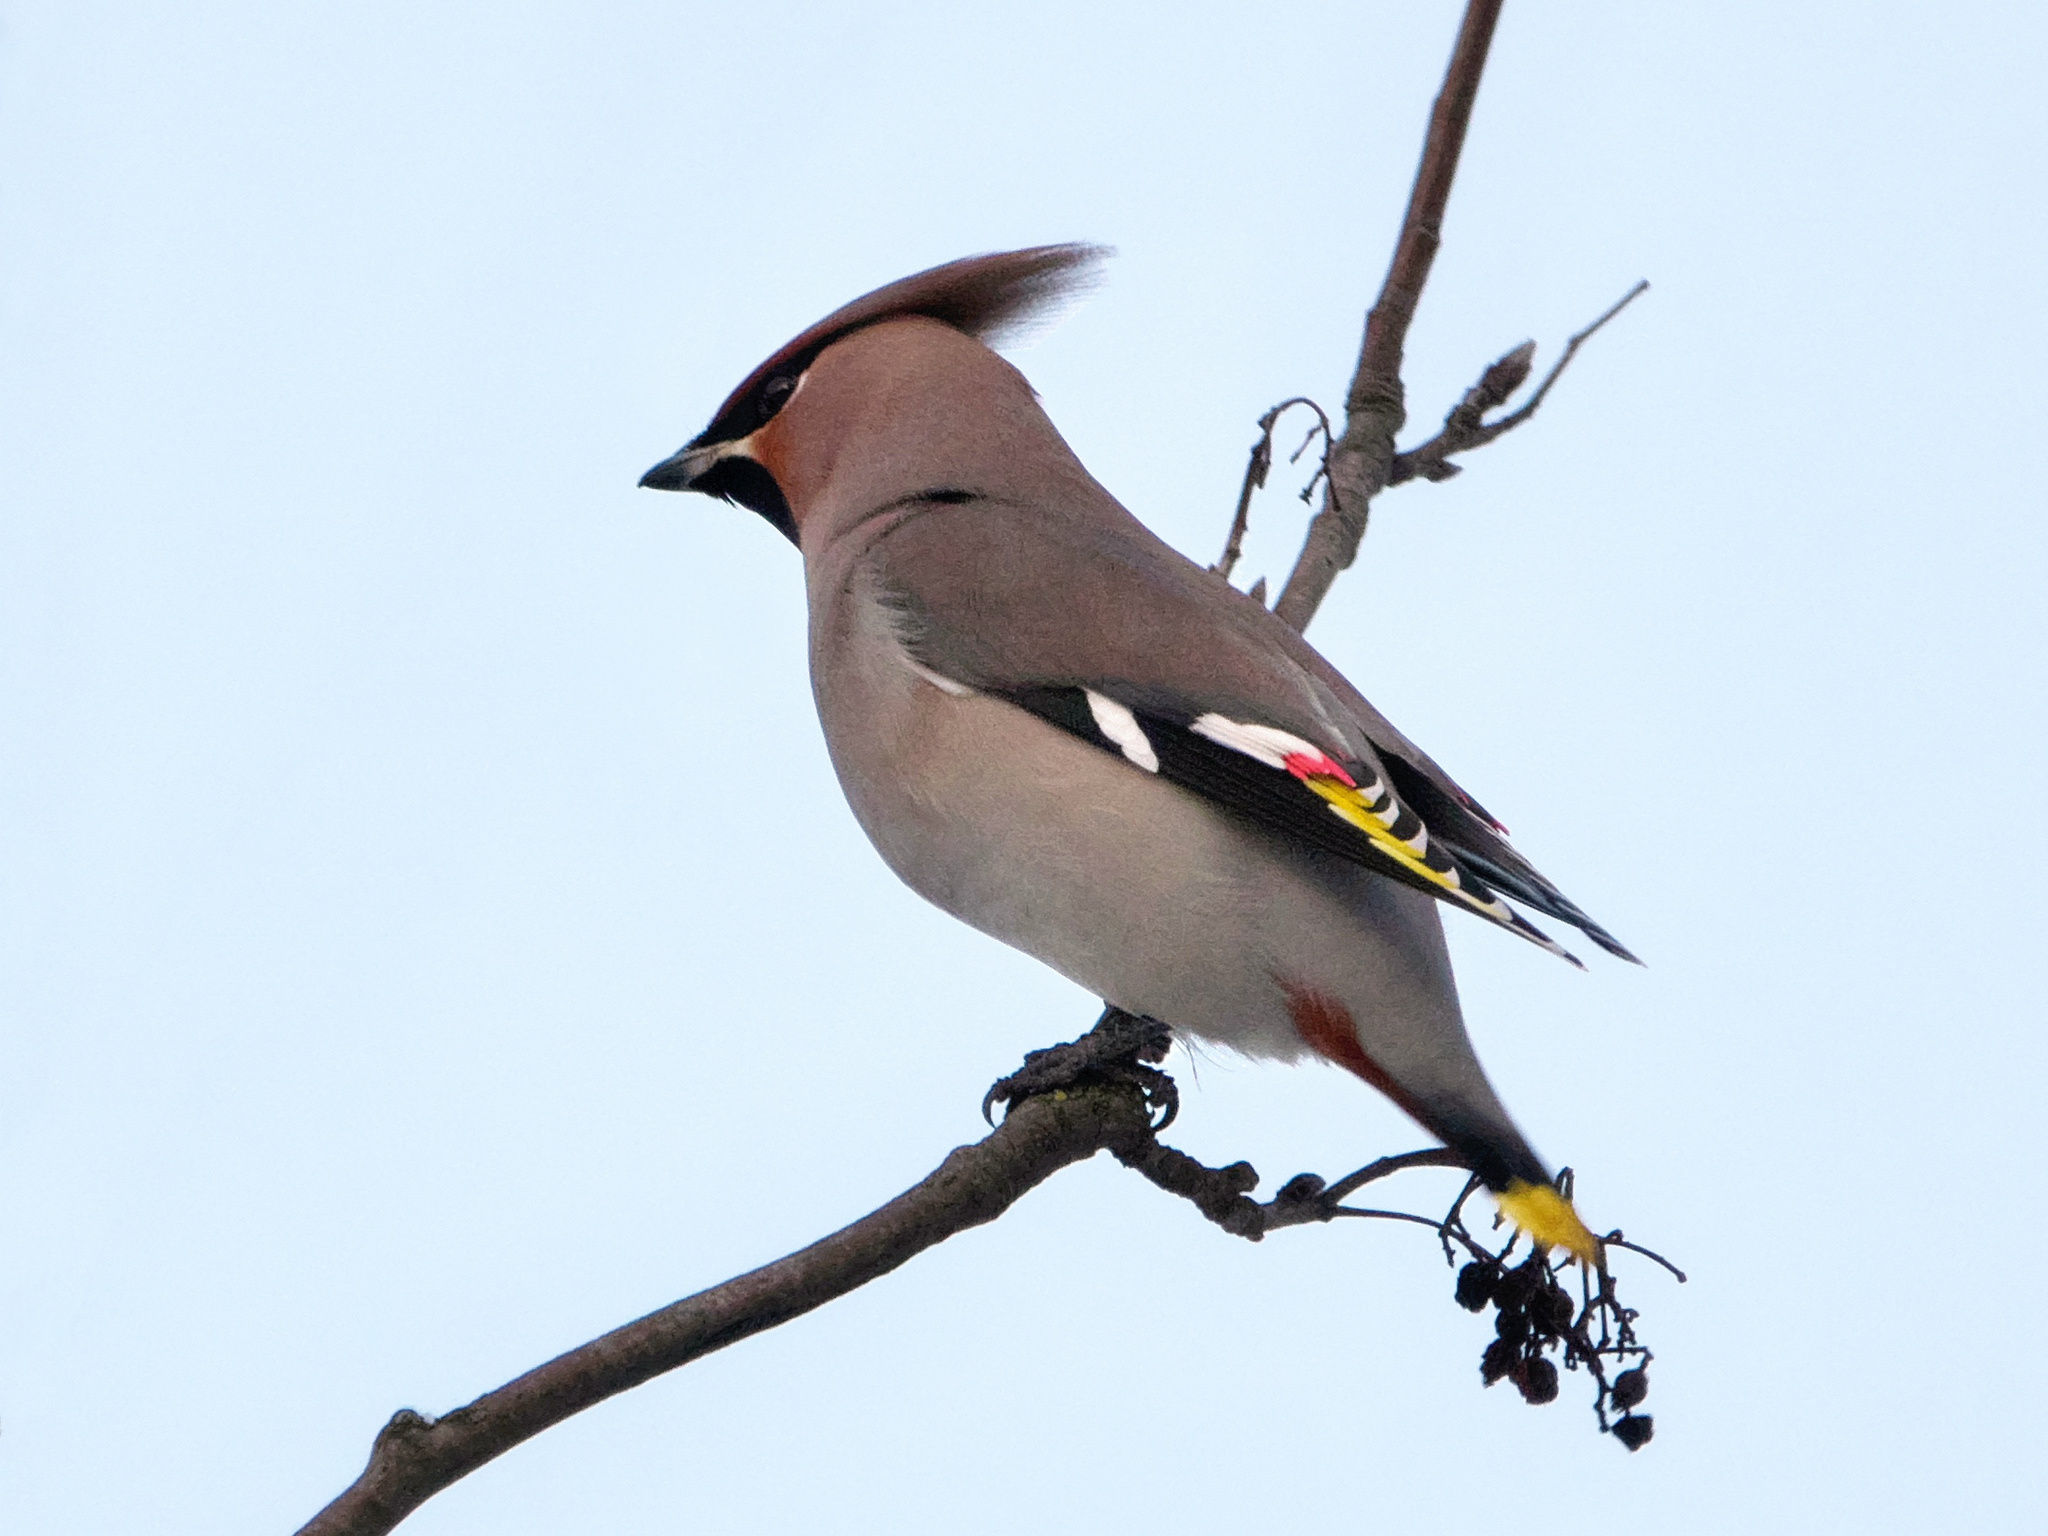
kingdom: Animalia
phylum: Chordata
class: Aves
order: Passeriformes
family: Bombycillidae
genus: Bombycilla
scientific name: Bombycilla garrulus
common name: Bohemian waxwing
